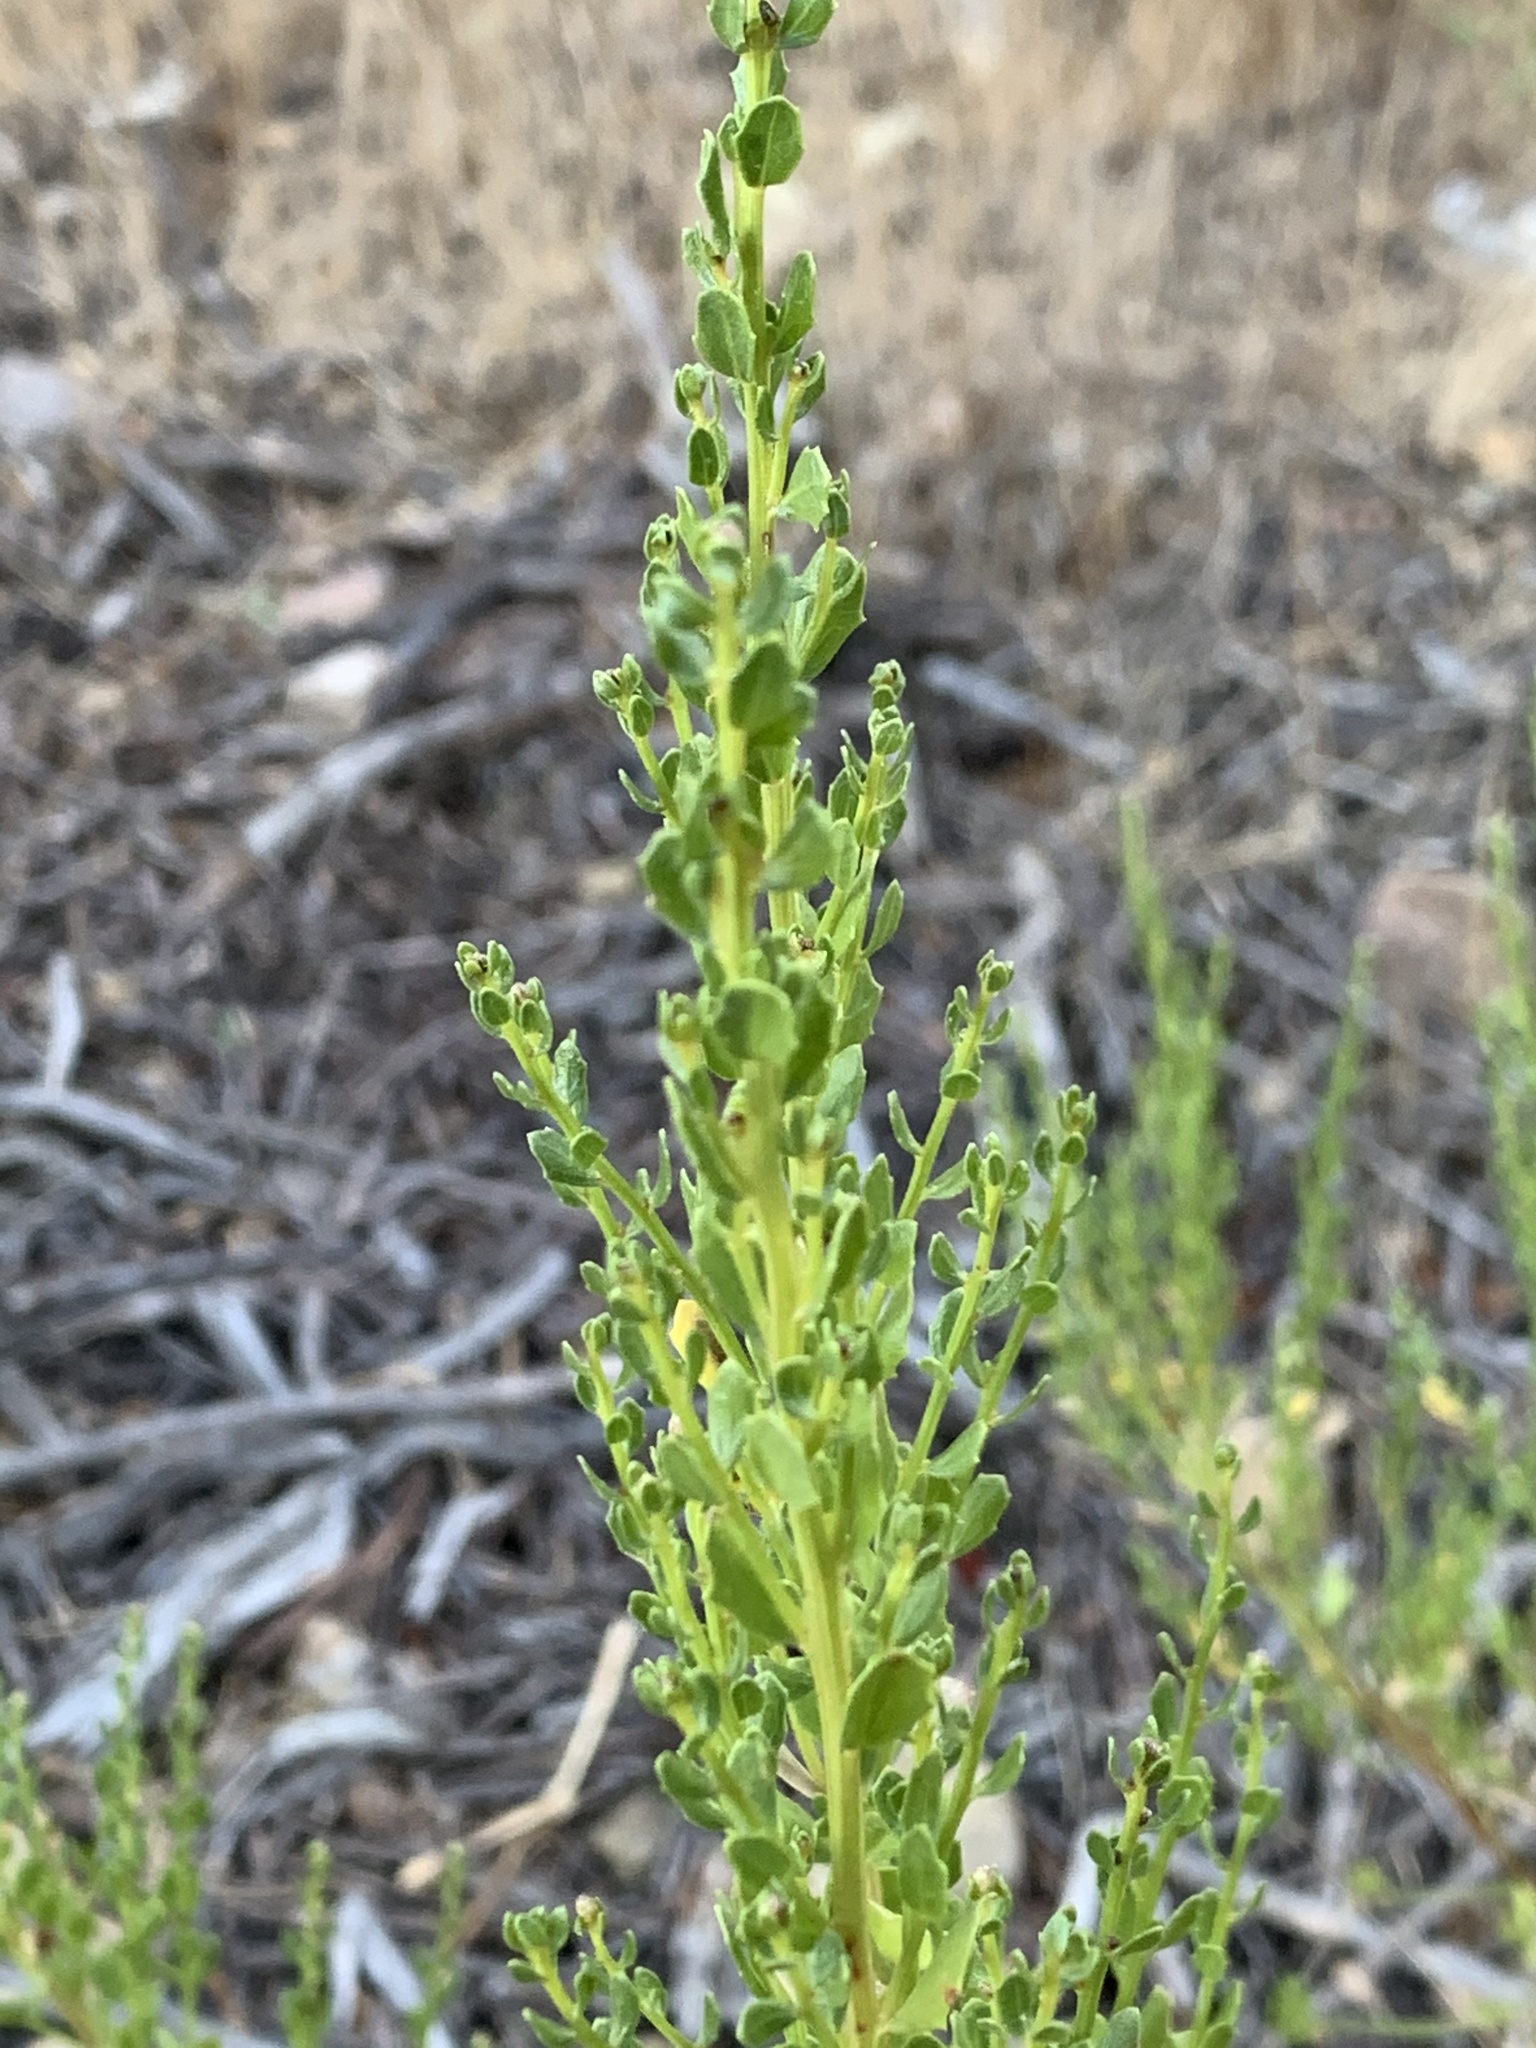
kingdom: Plantae
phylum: Tracheophyta
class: Magnoliopsida
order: Asterales
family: Asteraceae
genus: Baccharis
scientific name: Baccharis pilularis
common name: Coyotebrush
